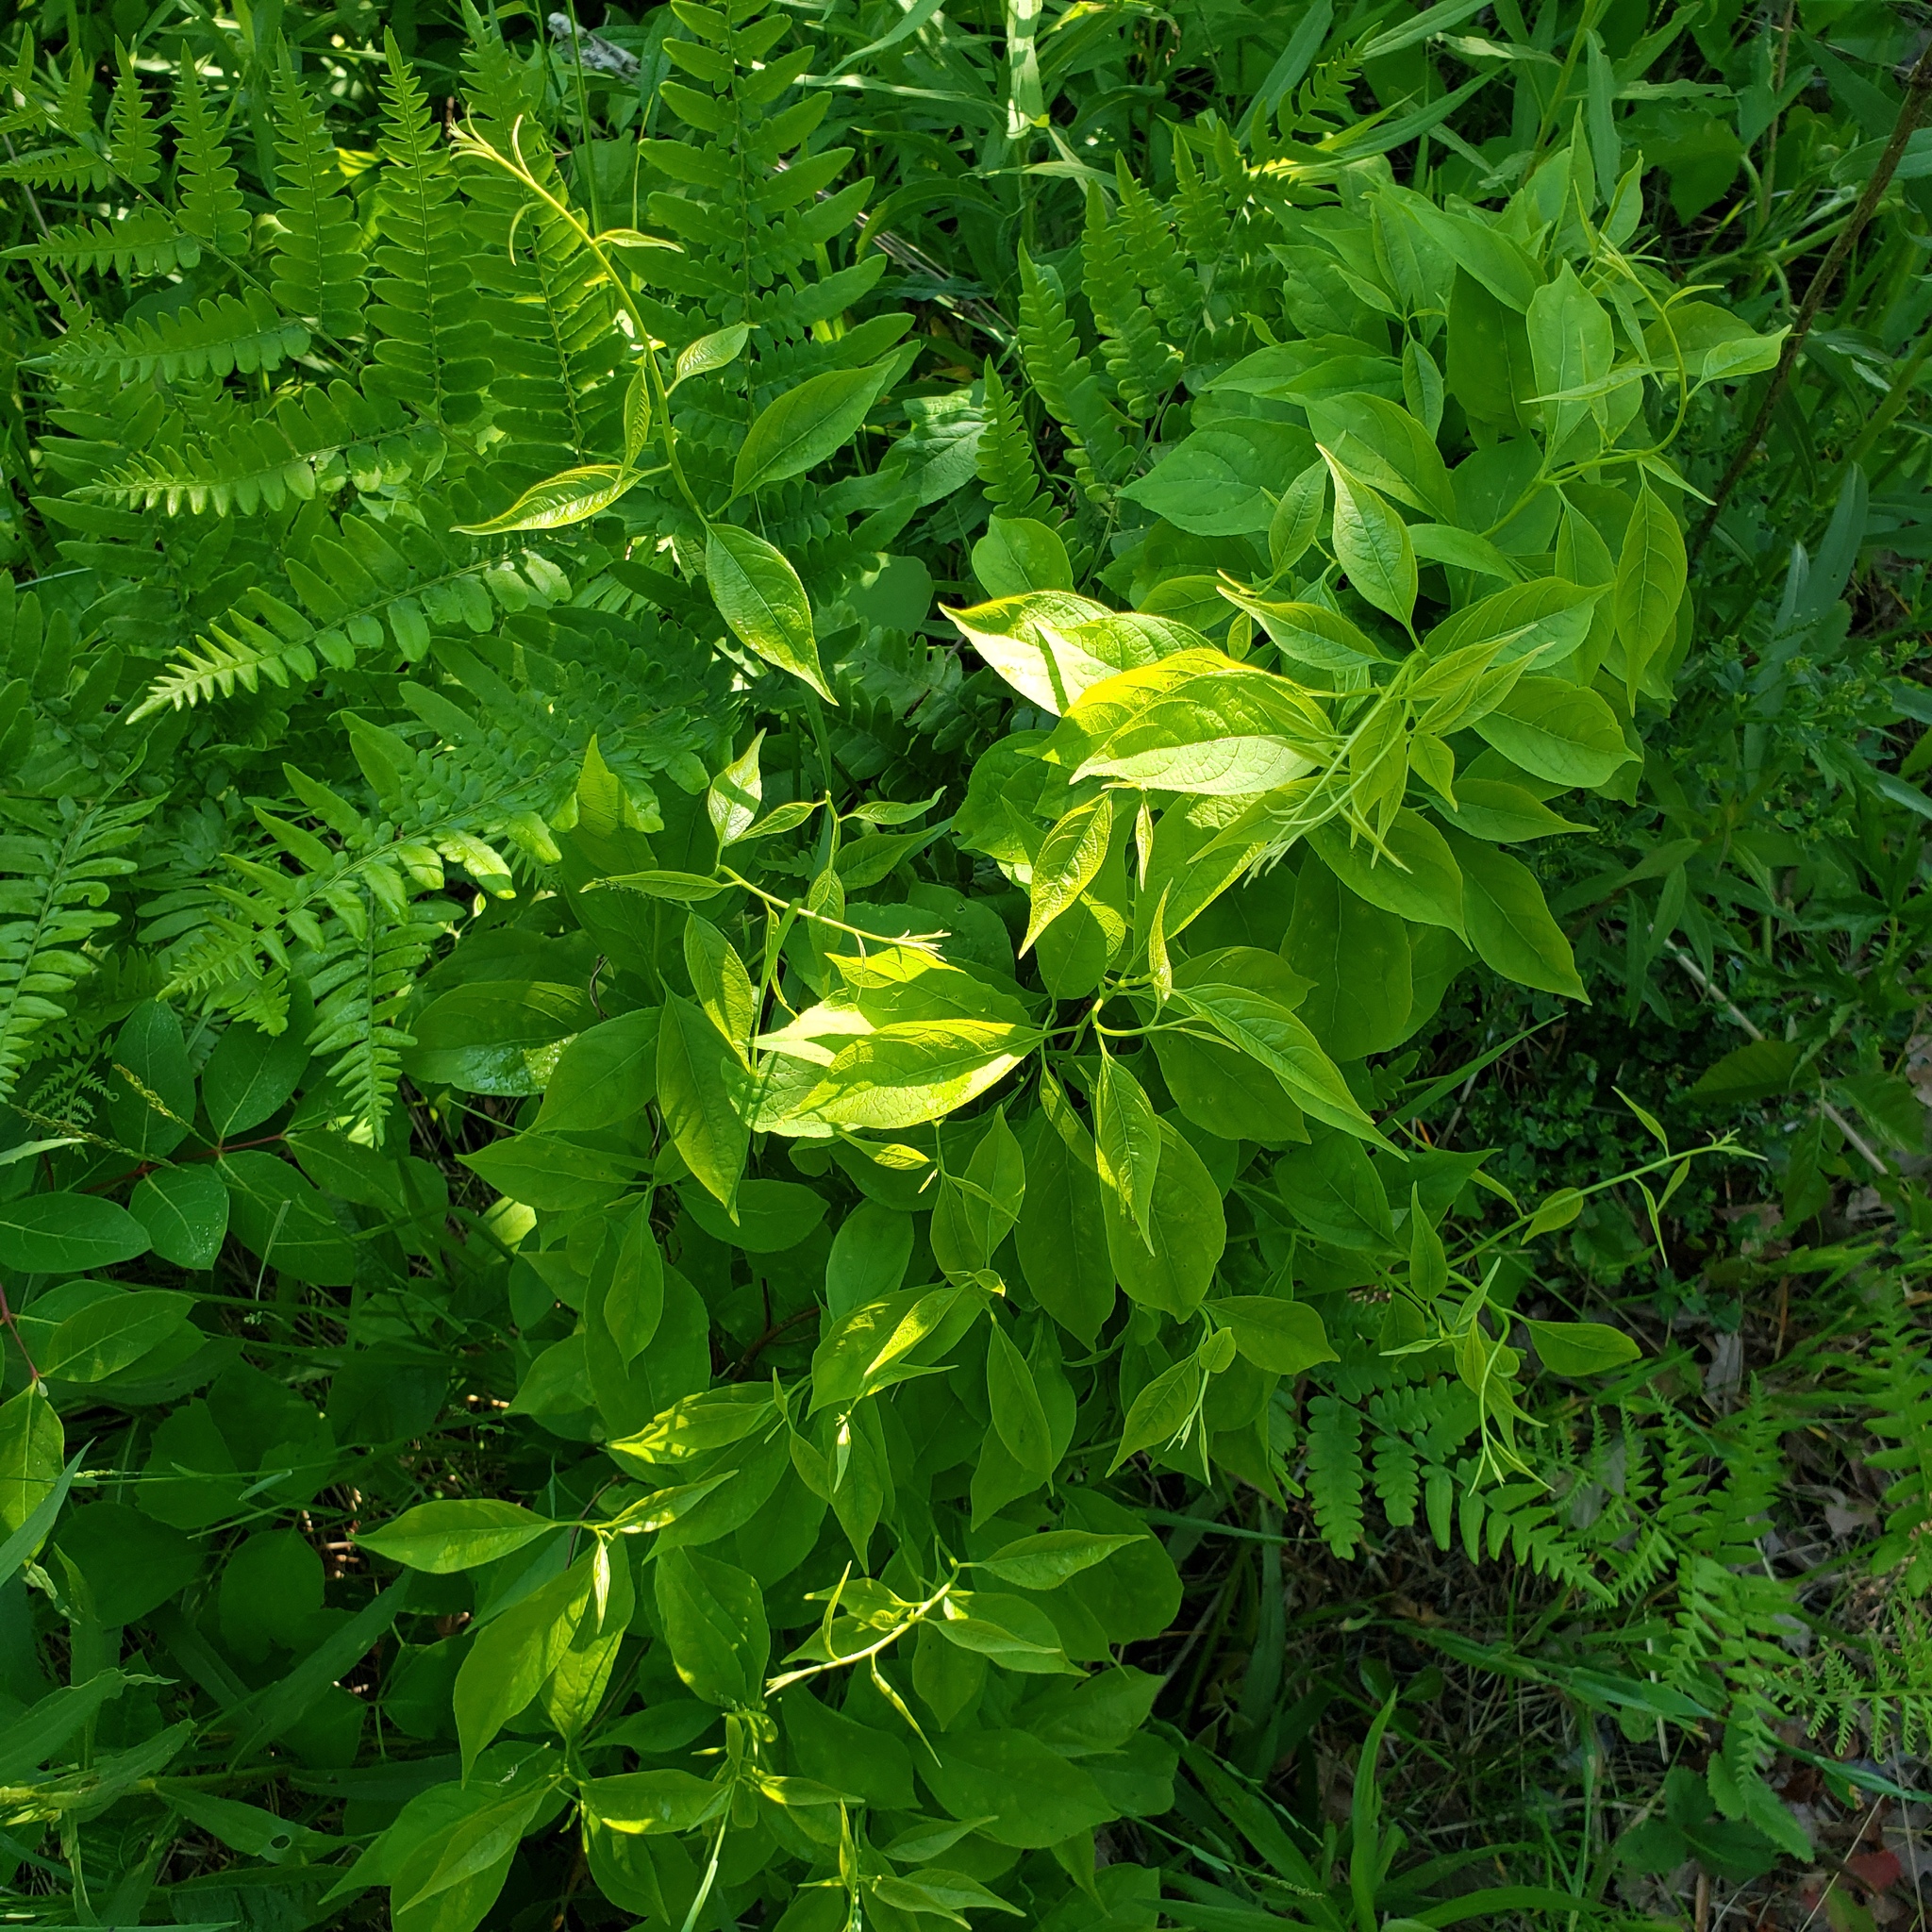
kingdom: Plantae
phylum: Tracheophyta
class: Magnoliopsida
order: Celastrales
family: Celastraceae
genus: Celastrus
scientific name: Celastrus scandens
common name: American bittersweet
